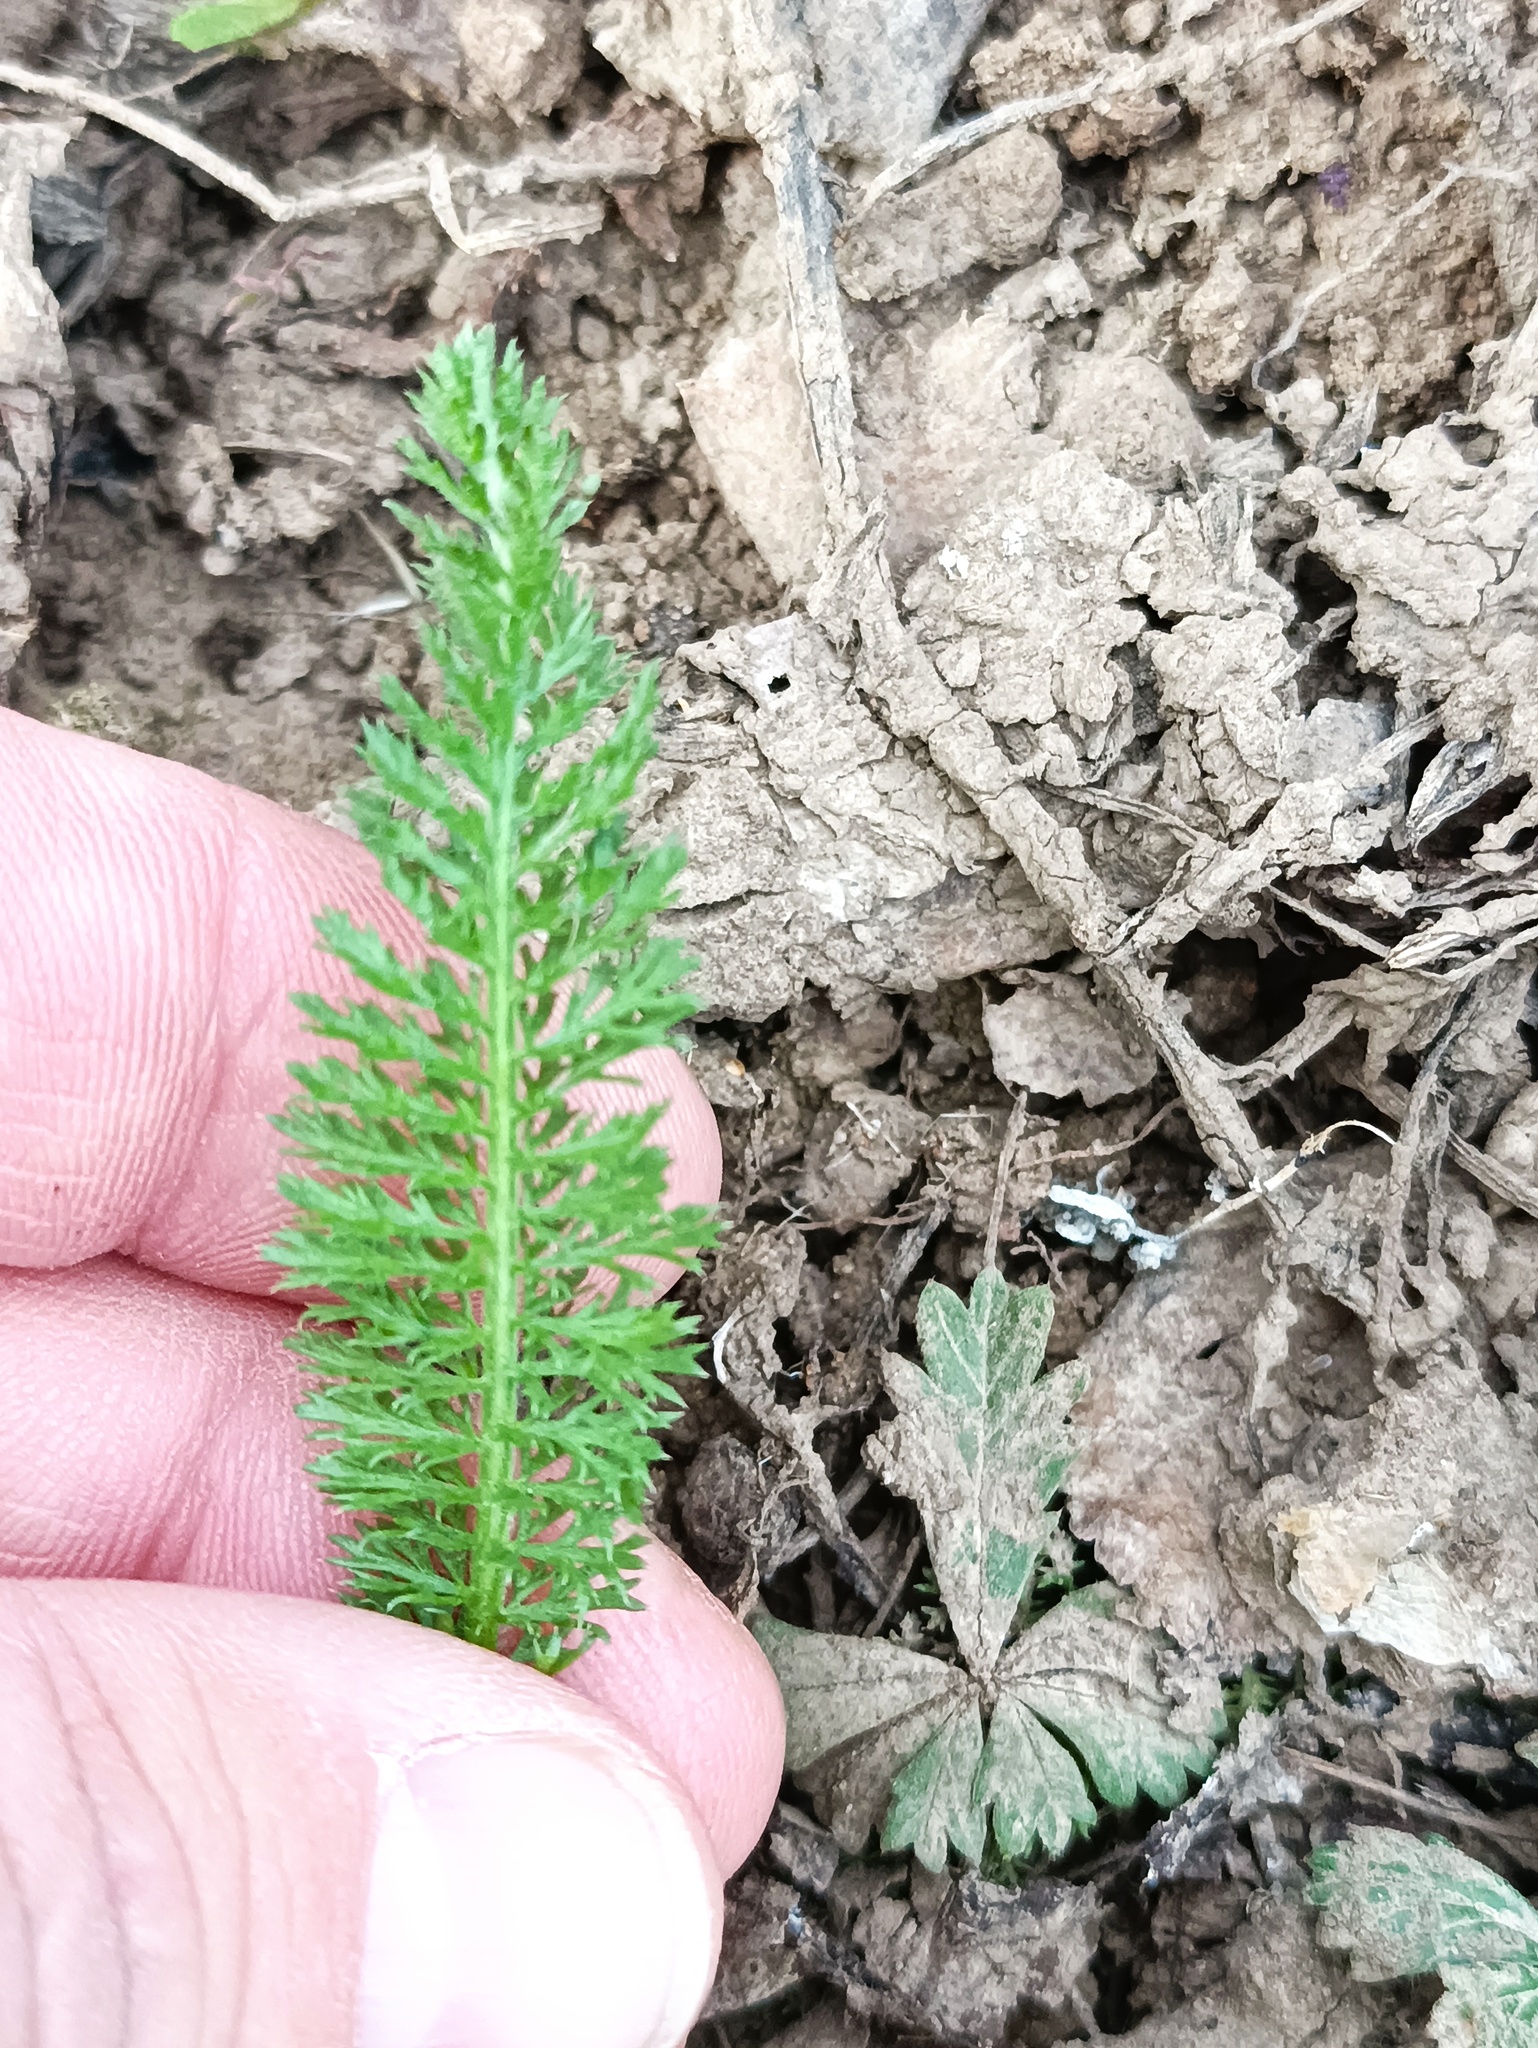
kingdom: Plantae
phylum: Tracheophyta
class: Magnoliopsida
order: Asterales
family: Asteraceae
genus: Achillea
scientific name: Achillea millefolium
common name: Yarrow
